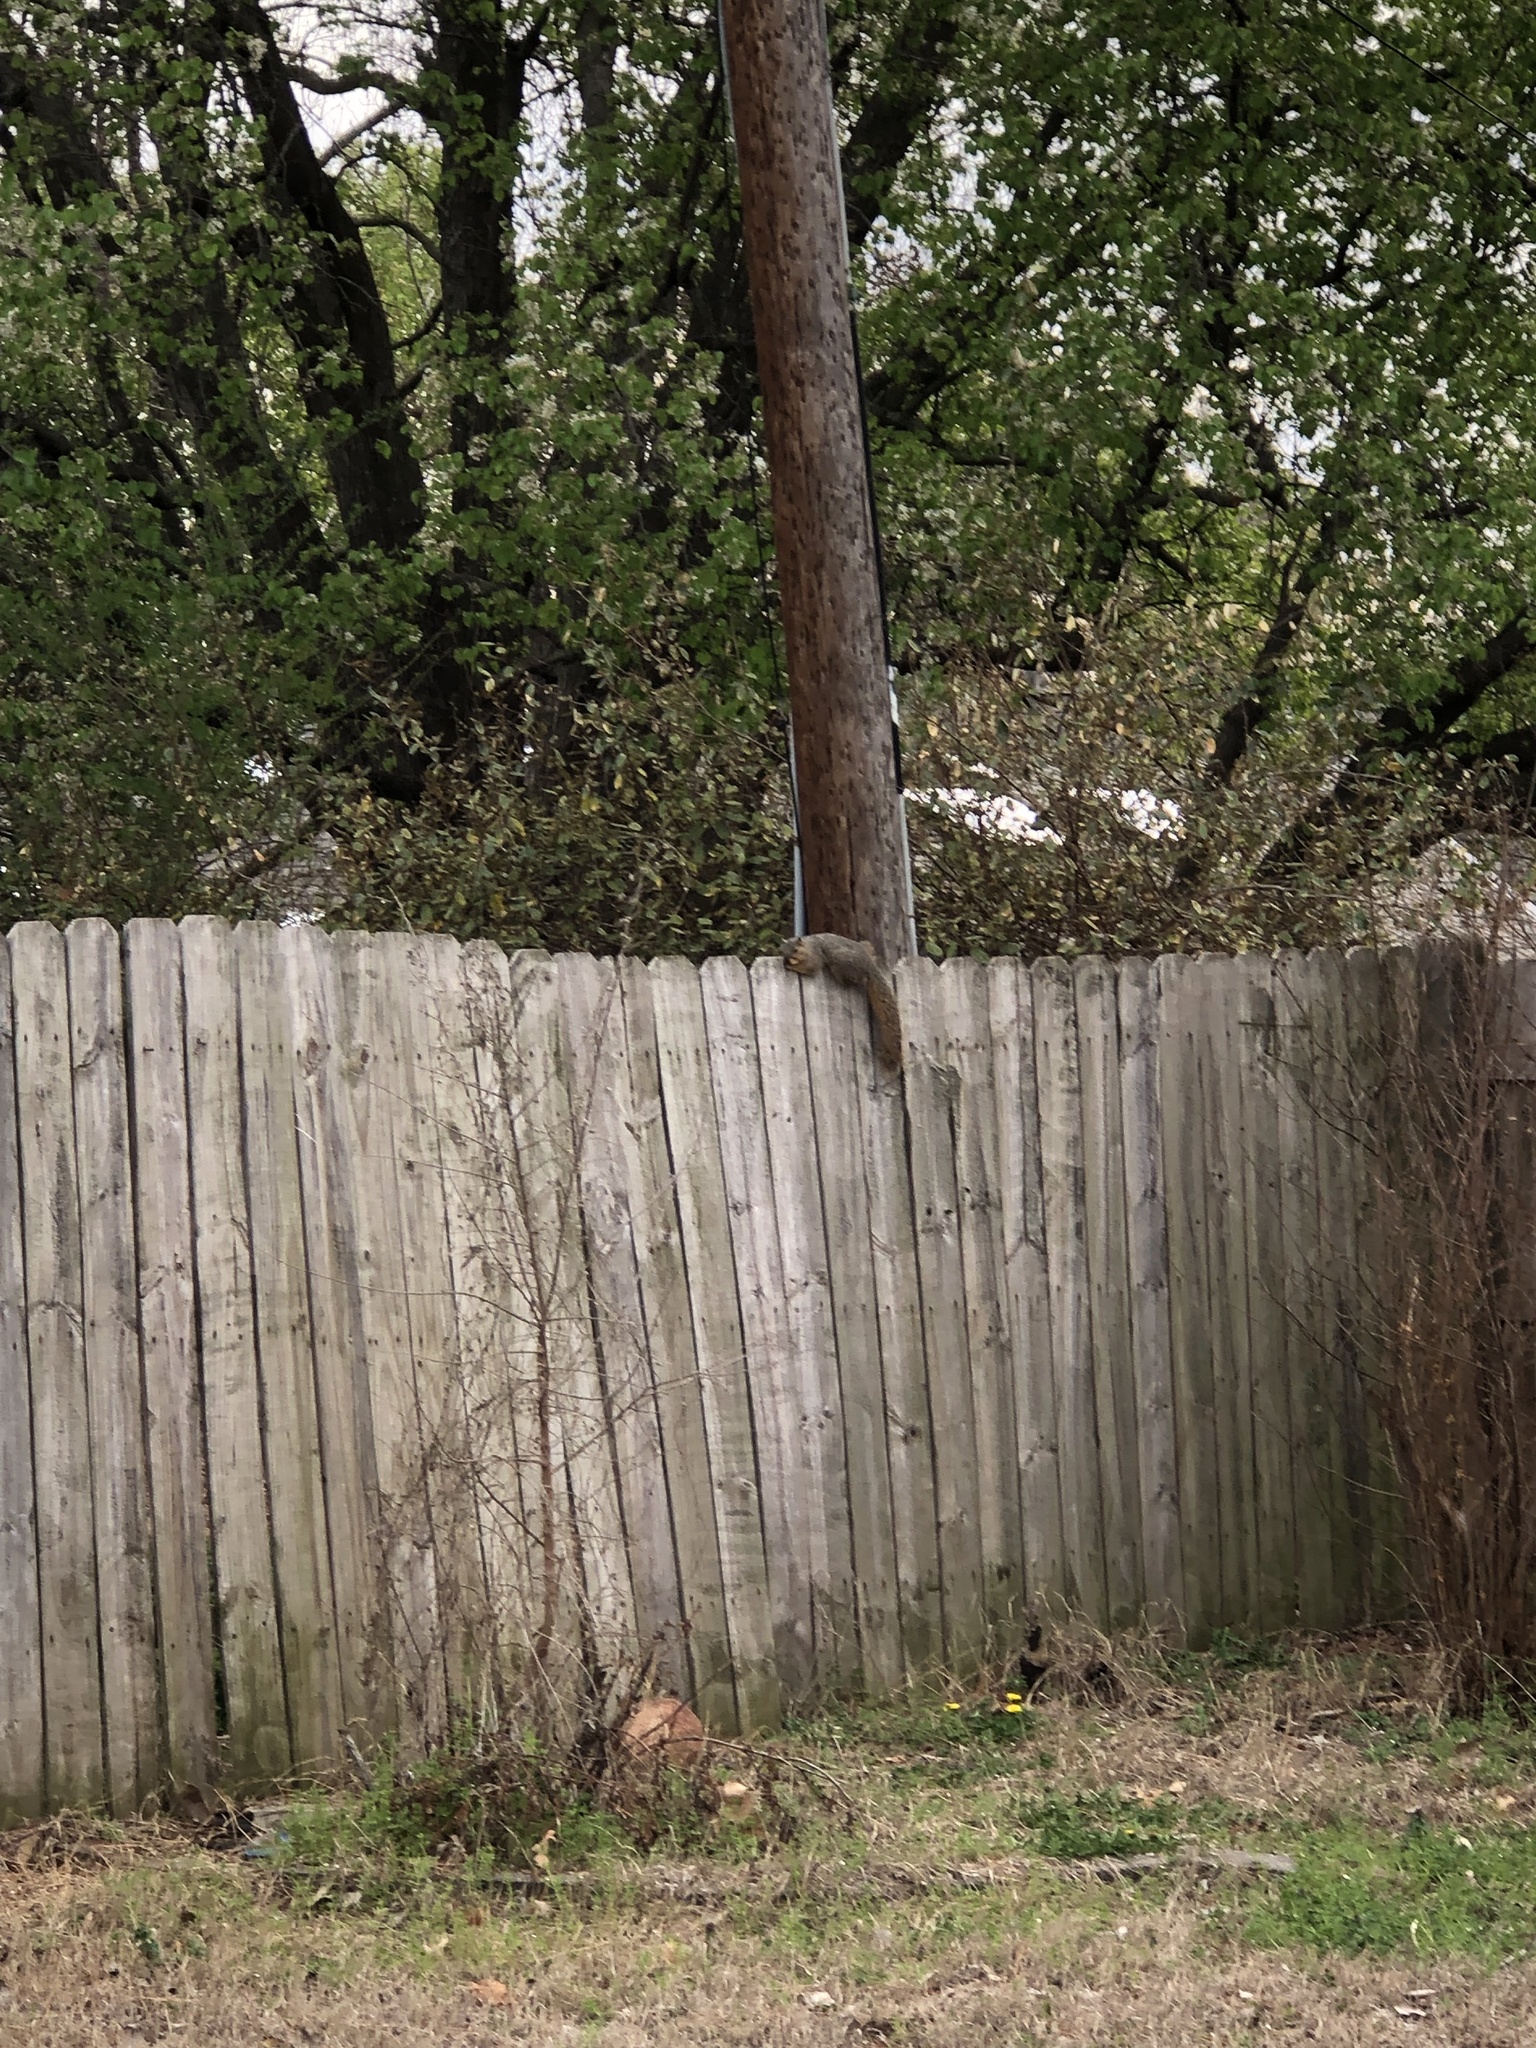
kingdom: Animalia
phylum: Chordata
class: Mammalia
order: Rodentia
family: Sciuridae
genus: Sciurus
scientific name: Sciurus niger
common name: Fox squirrel
